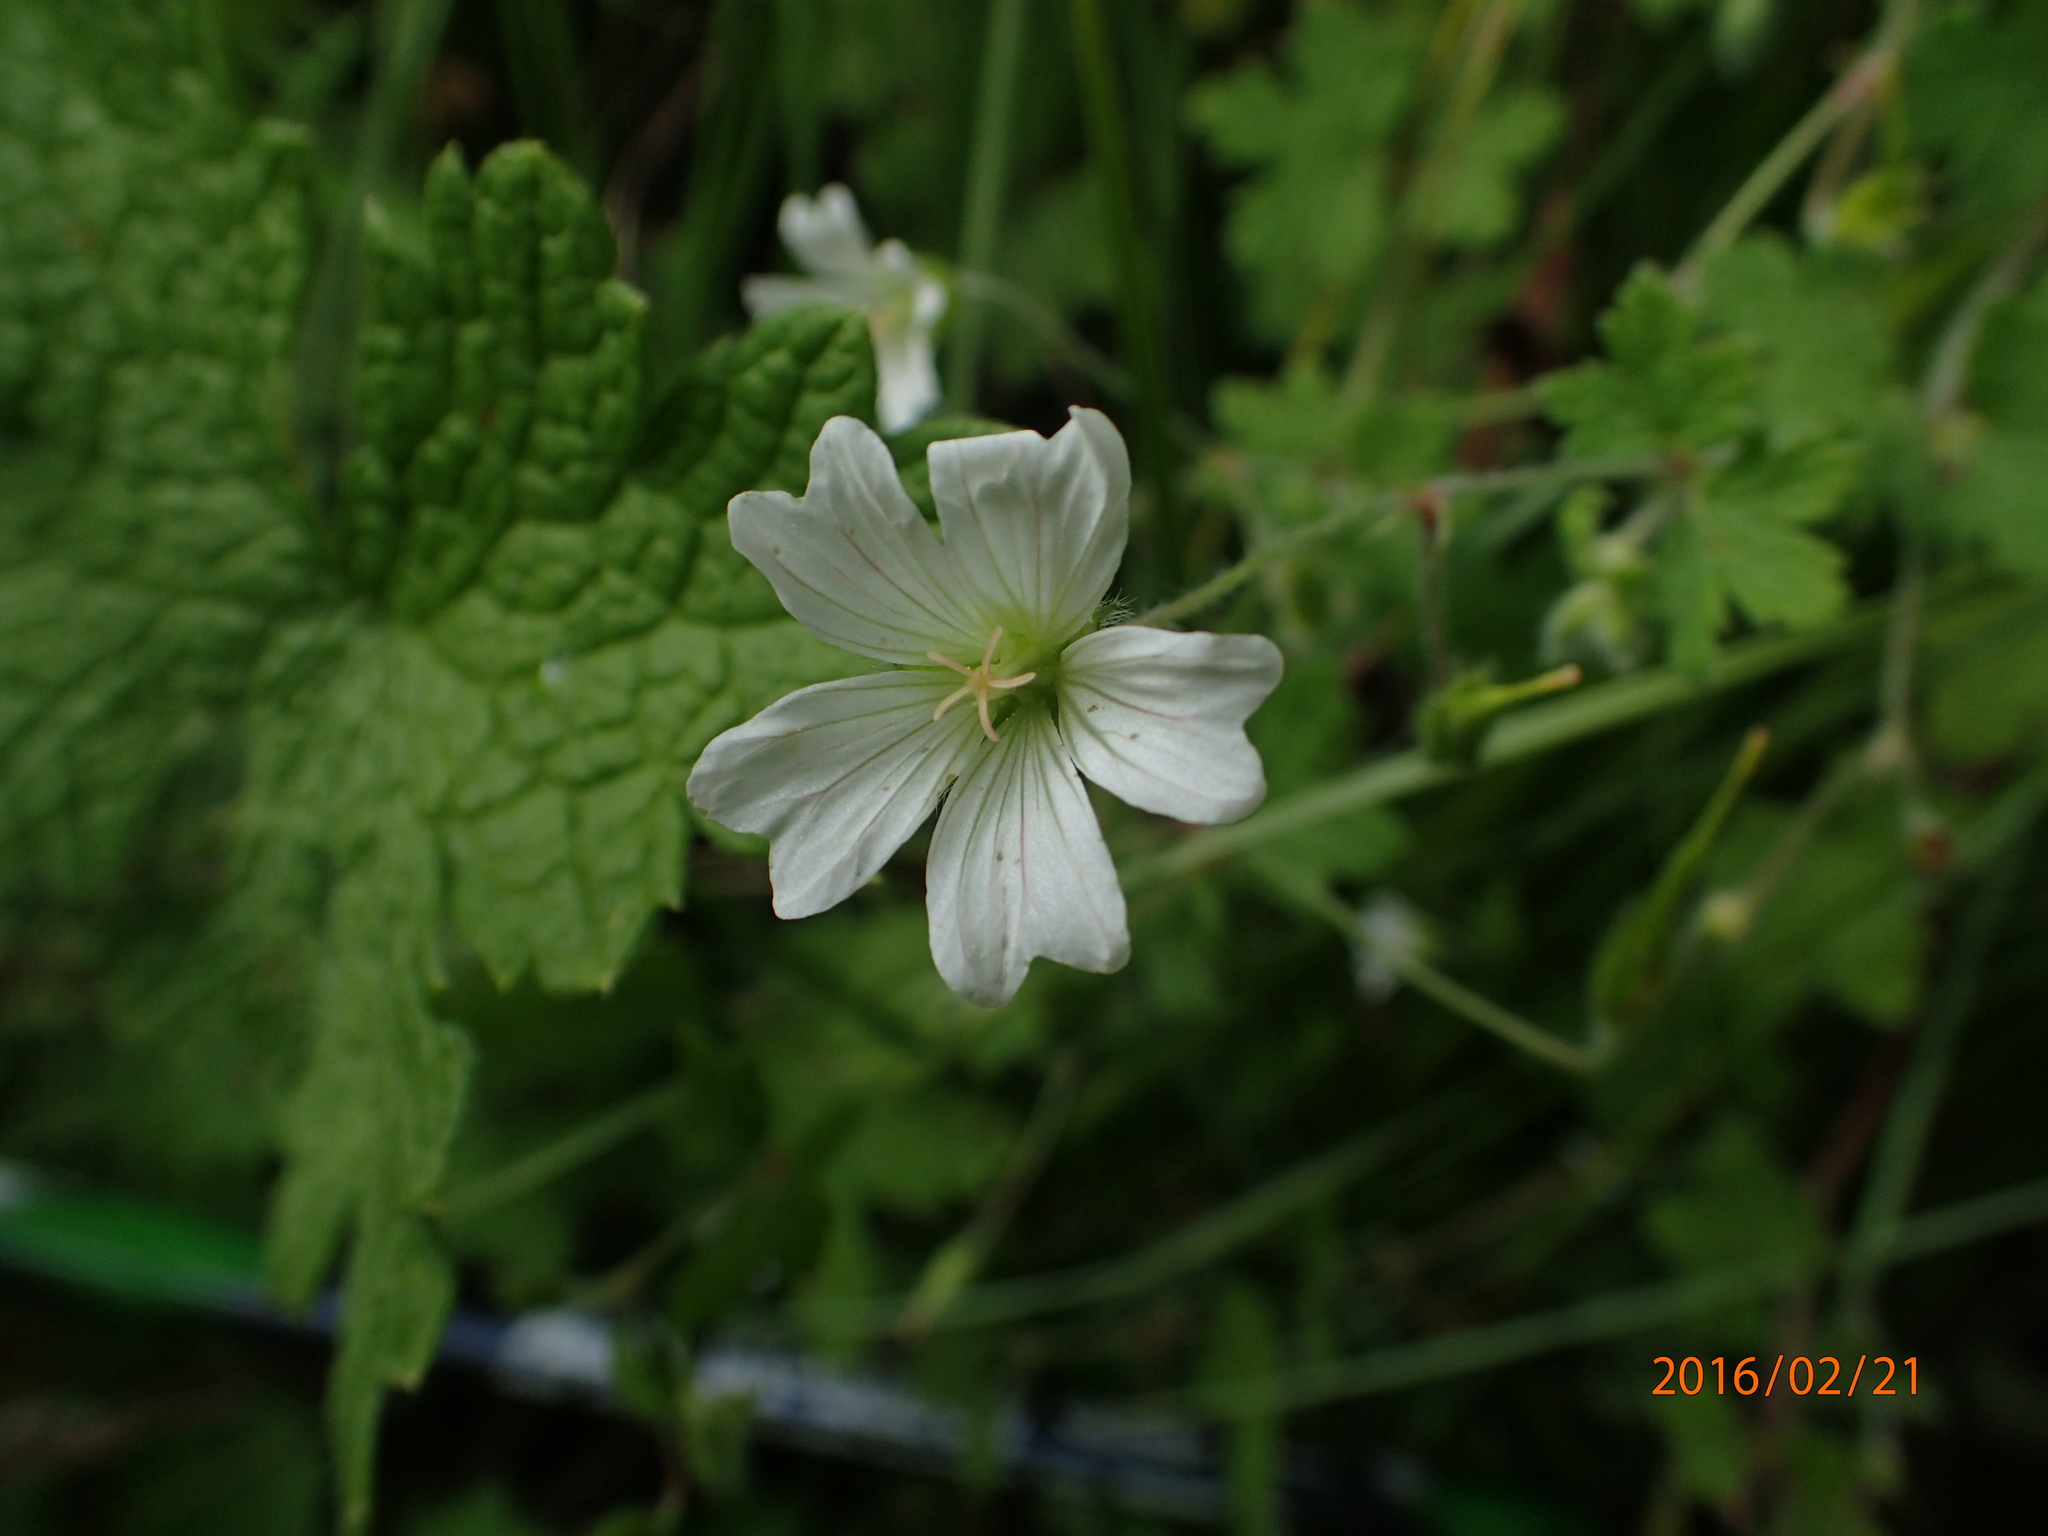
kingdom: Plantae
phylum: Tracheophyta
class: Magnoliopsida
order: Geraniales
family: Geraniaceae
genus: Geranium
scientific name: Geranium wakkerstroomianum
